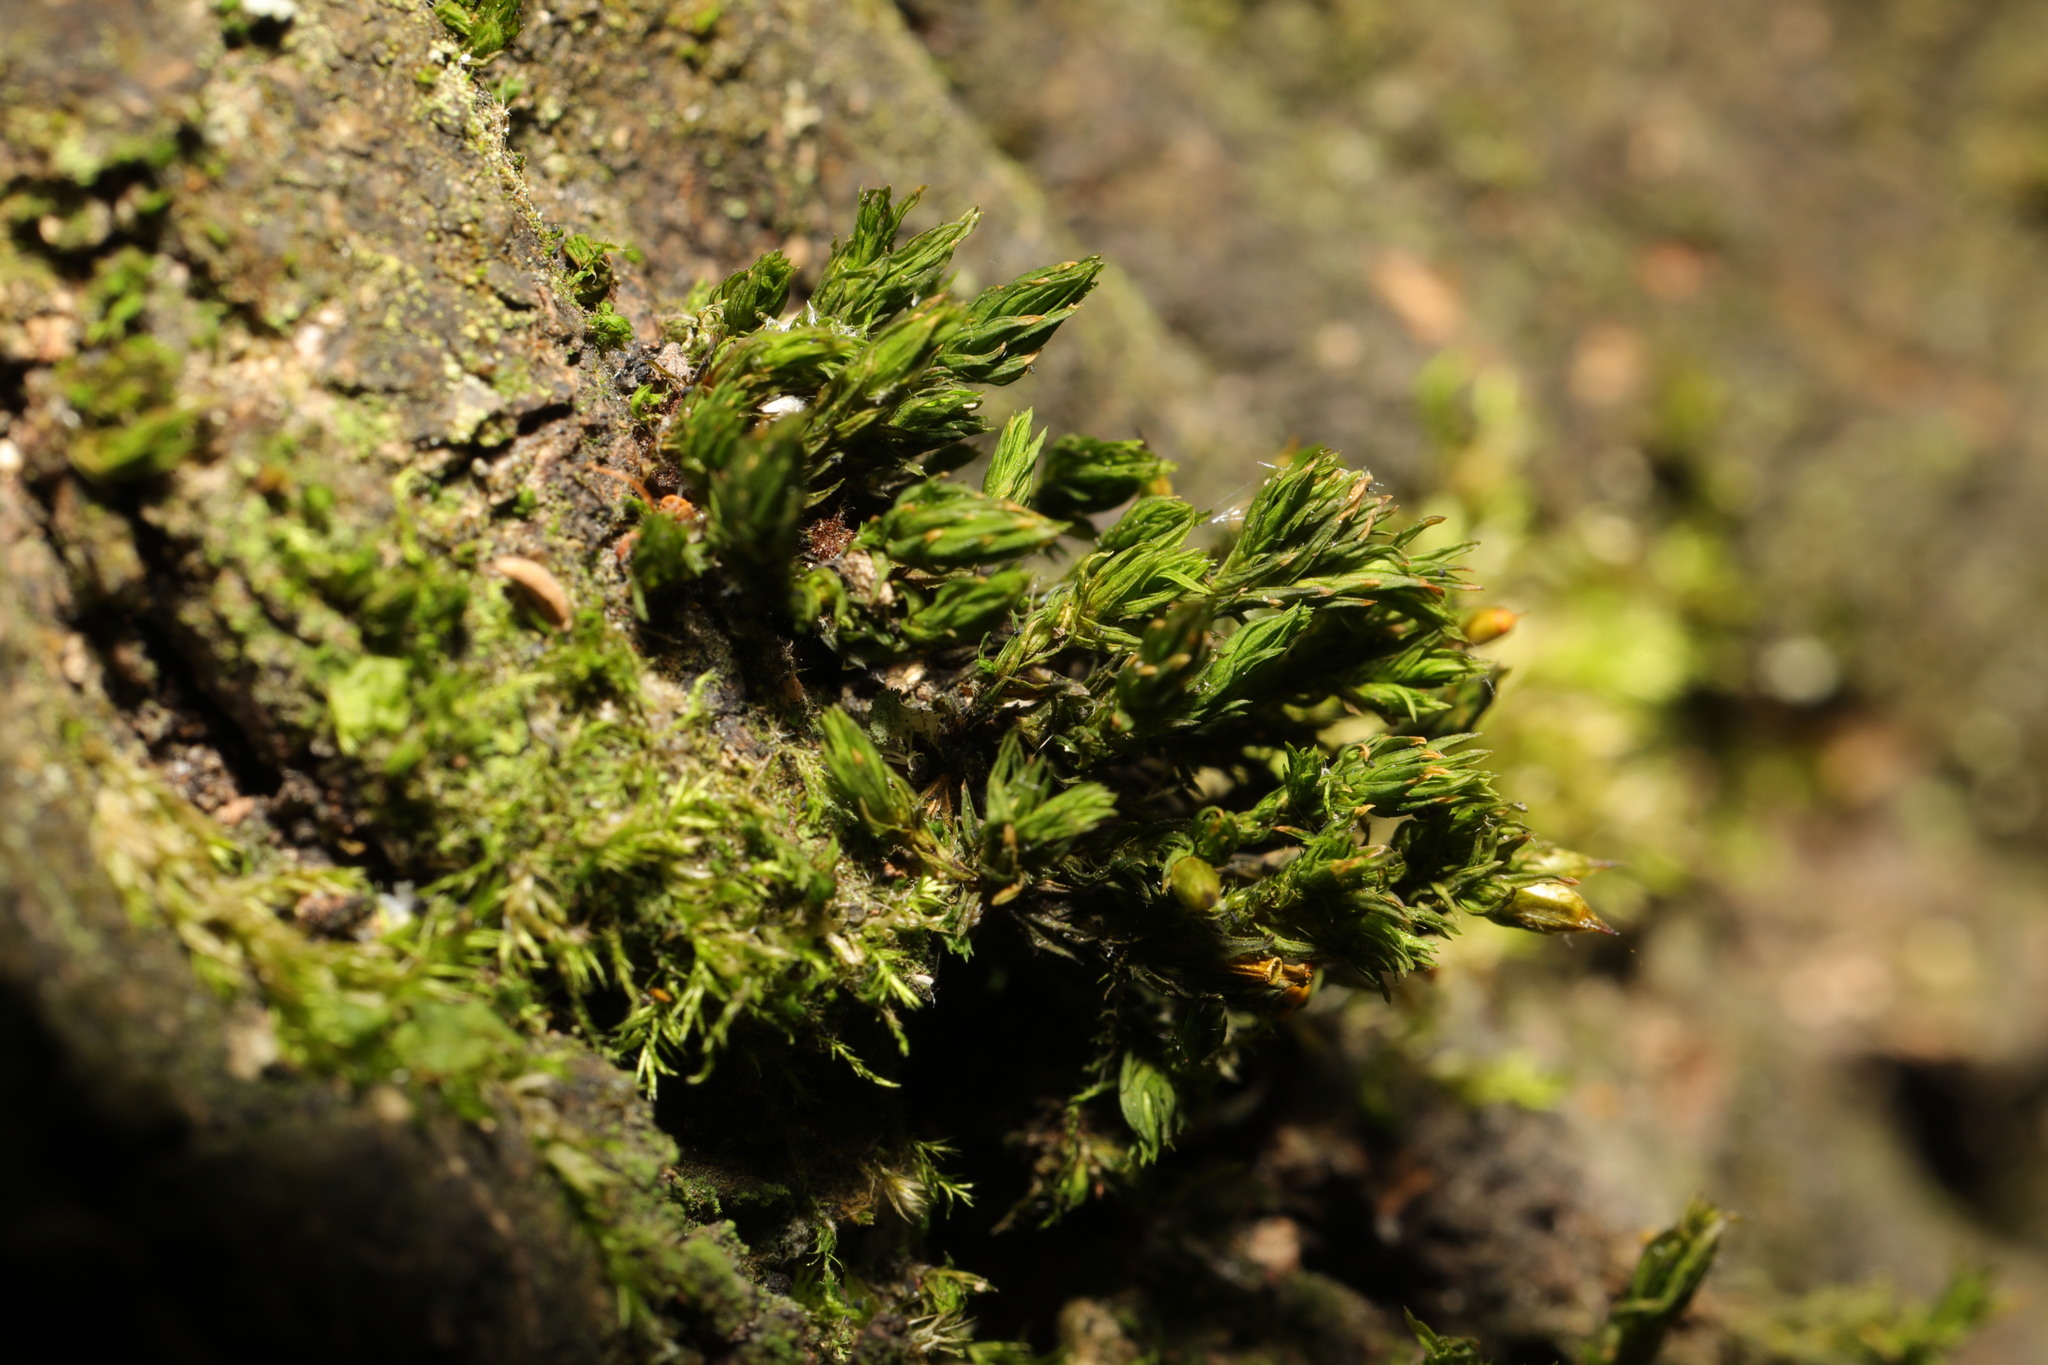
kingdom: Plantae
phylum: Bryophyta
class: Bryopsida
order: Orthotrichales
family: Orthotrichaceae
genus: Lewinskya
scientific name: Lewinskya affinis
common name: Wood bristle-moss
